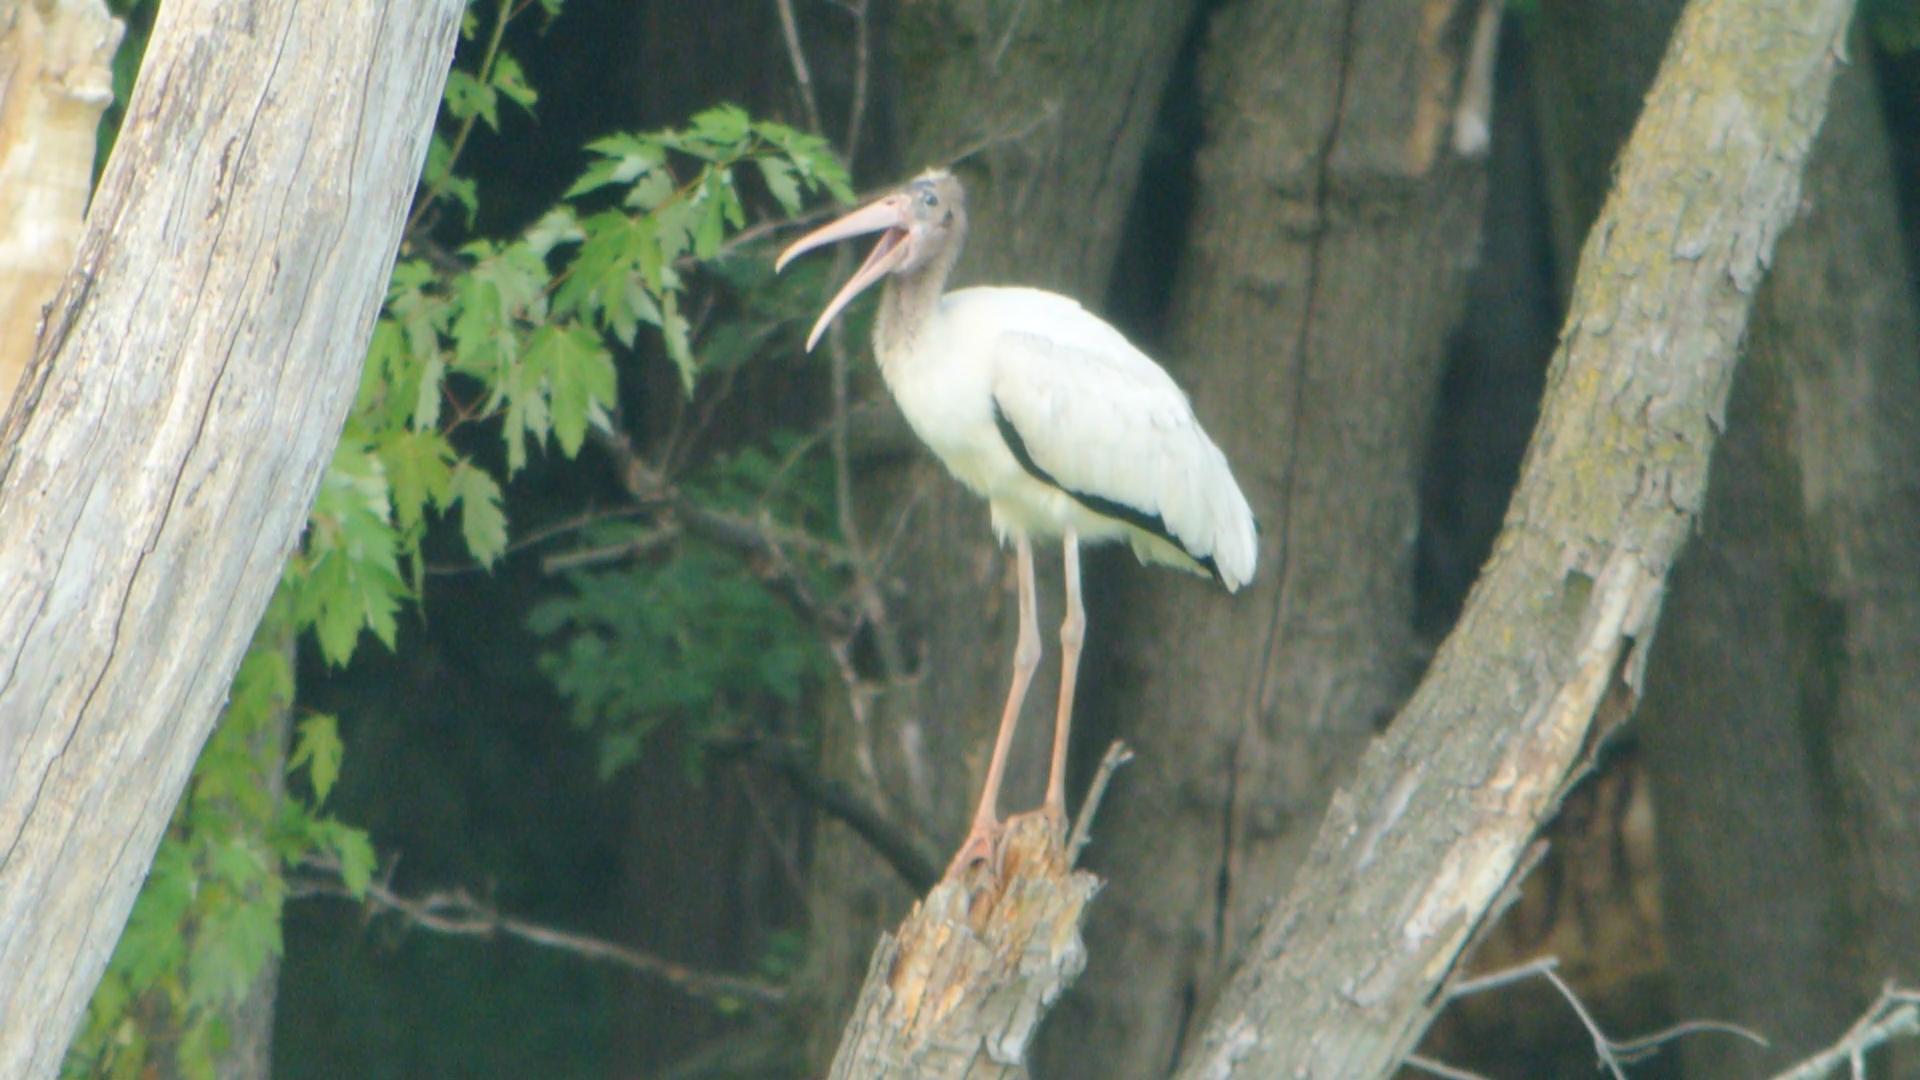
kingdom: Animalia
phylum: Chordata
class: Aves
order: Ciconiiformes
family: Ciconiidae
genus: Mycteria
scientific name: Mycteria americana
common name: Wood stork
